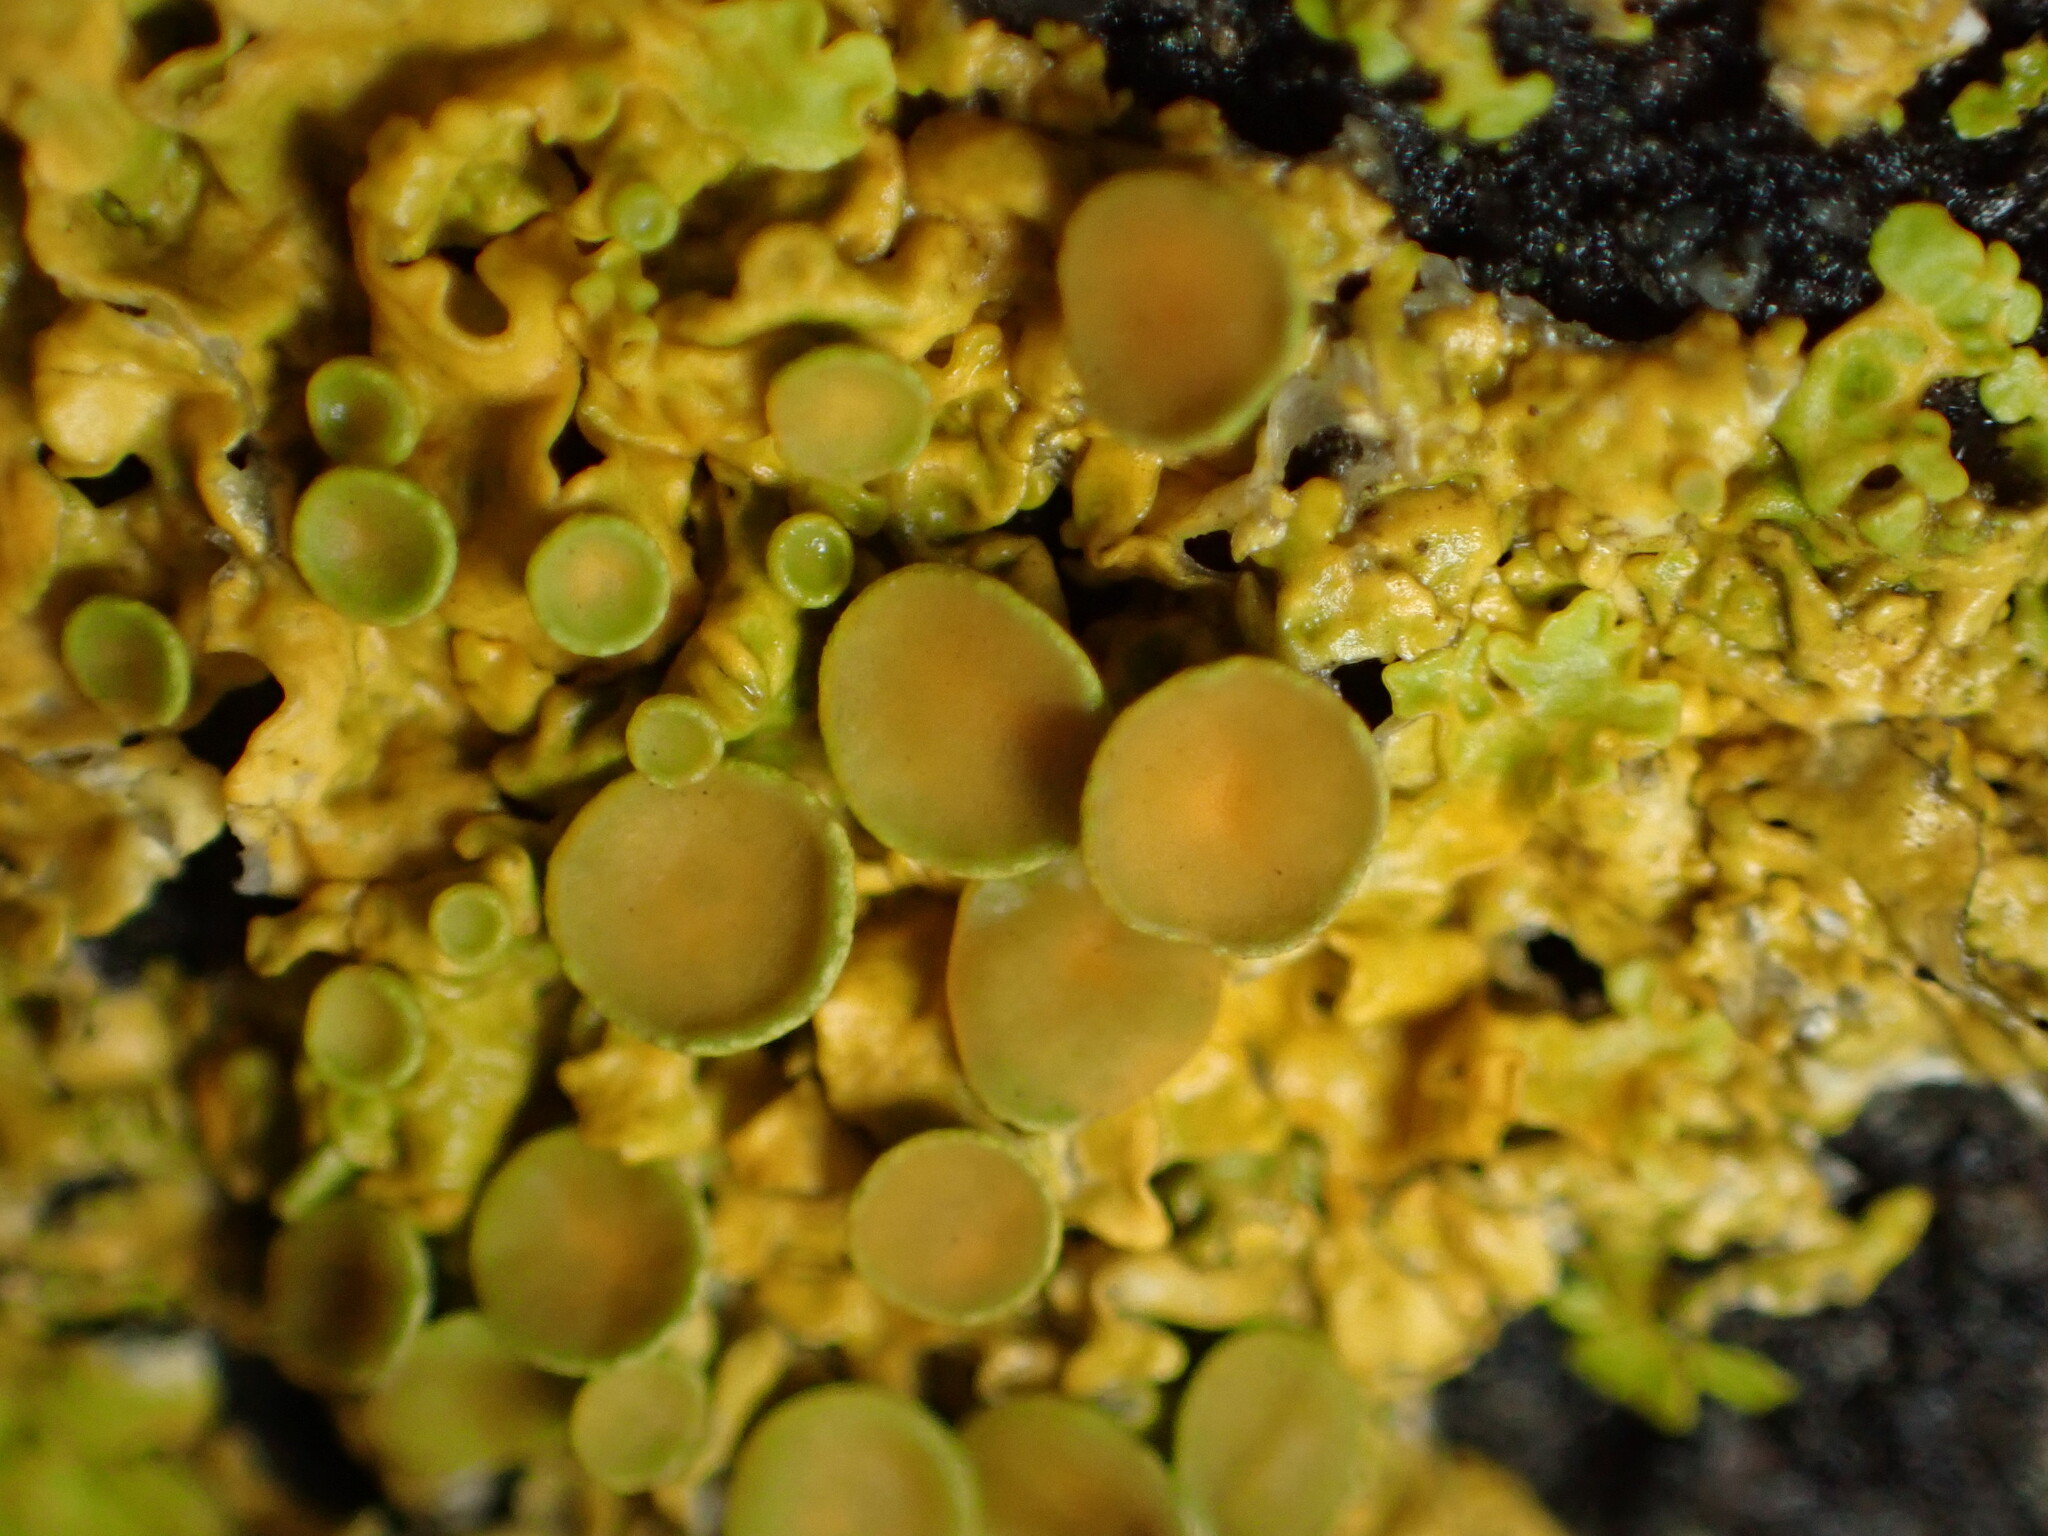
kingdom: Fungi
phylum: Ascomycota
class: Lecanoromycetes
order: Teloschistales
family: Teloschistaceae
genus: Xanthoria
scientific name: Xanthoria parietina
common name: Common orange lichen
